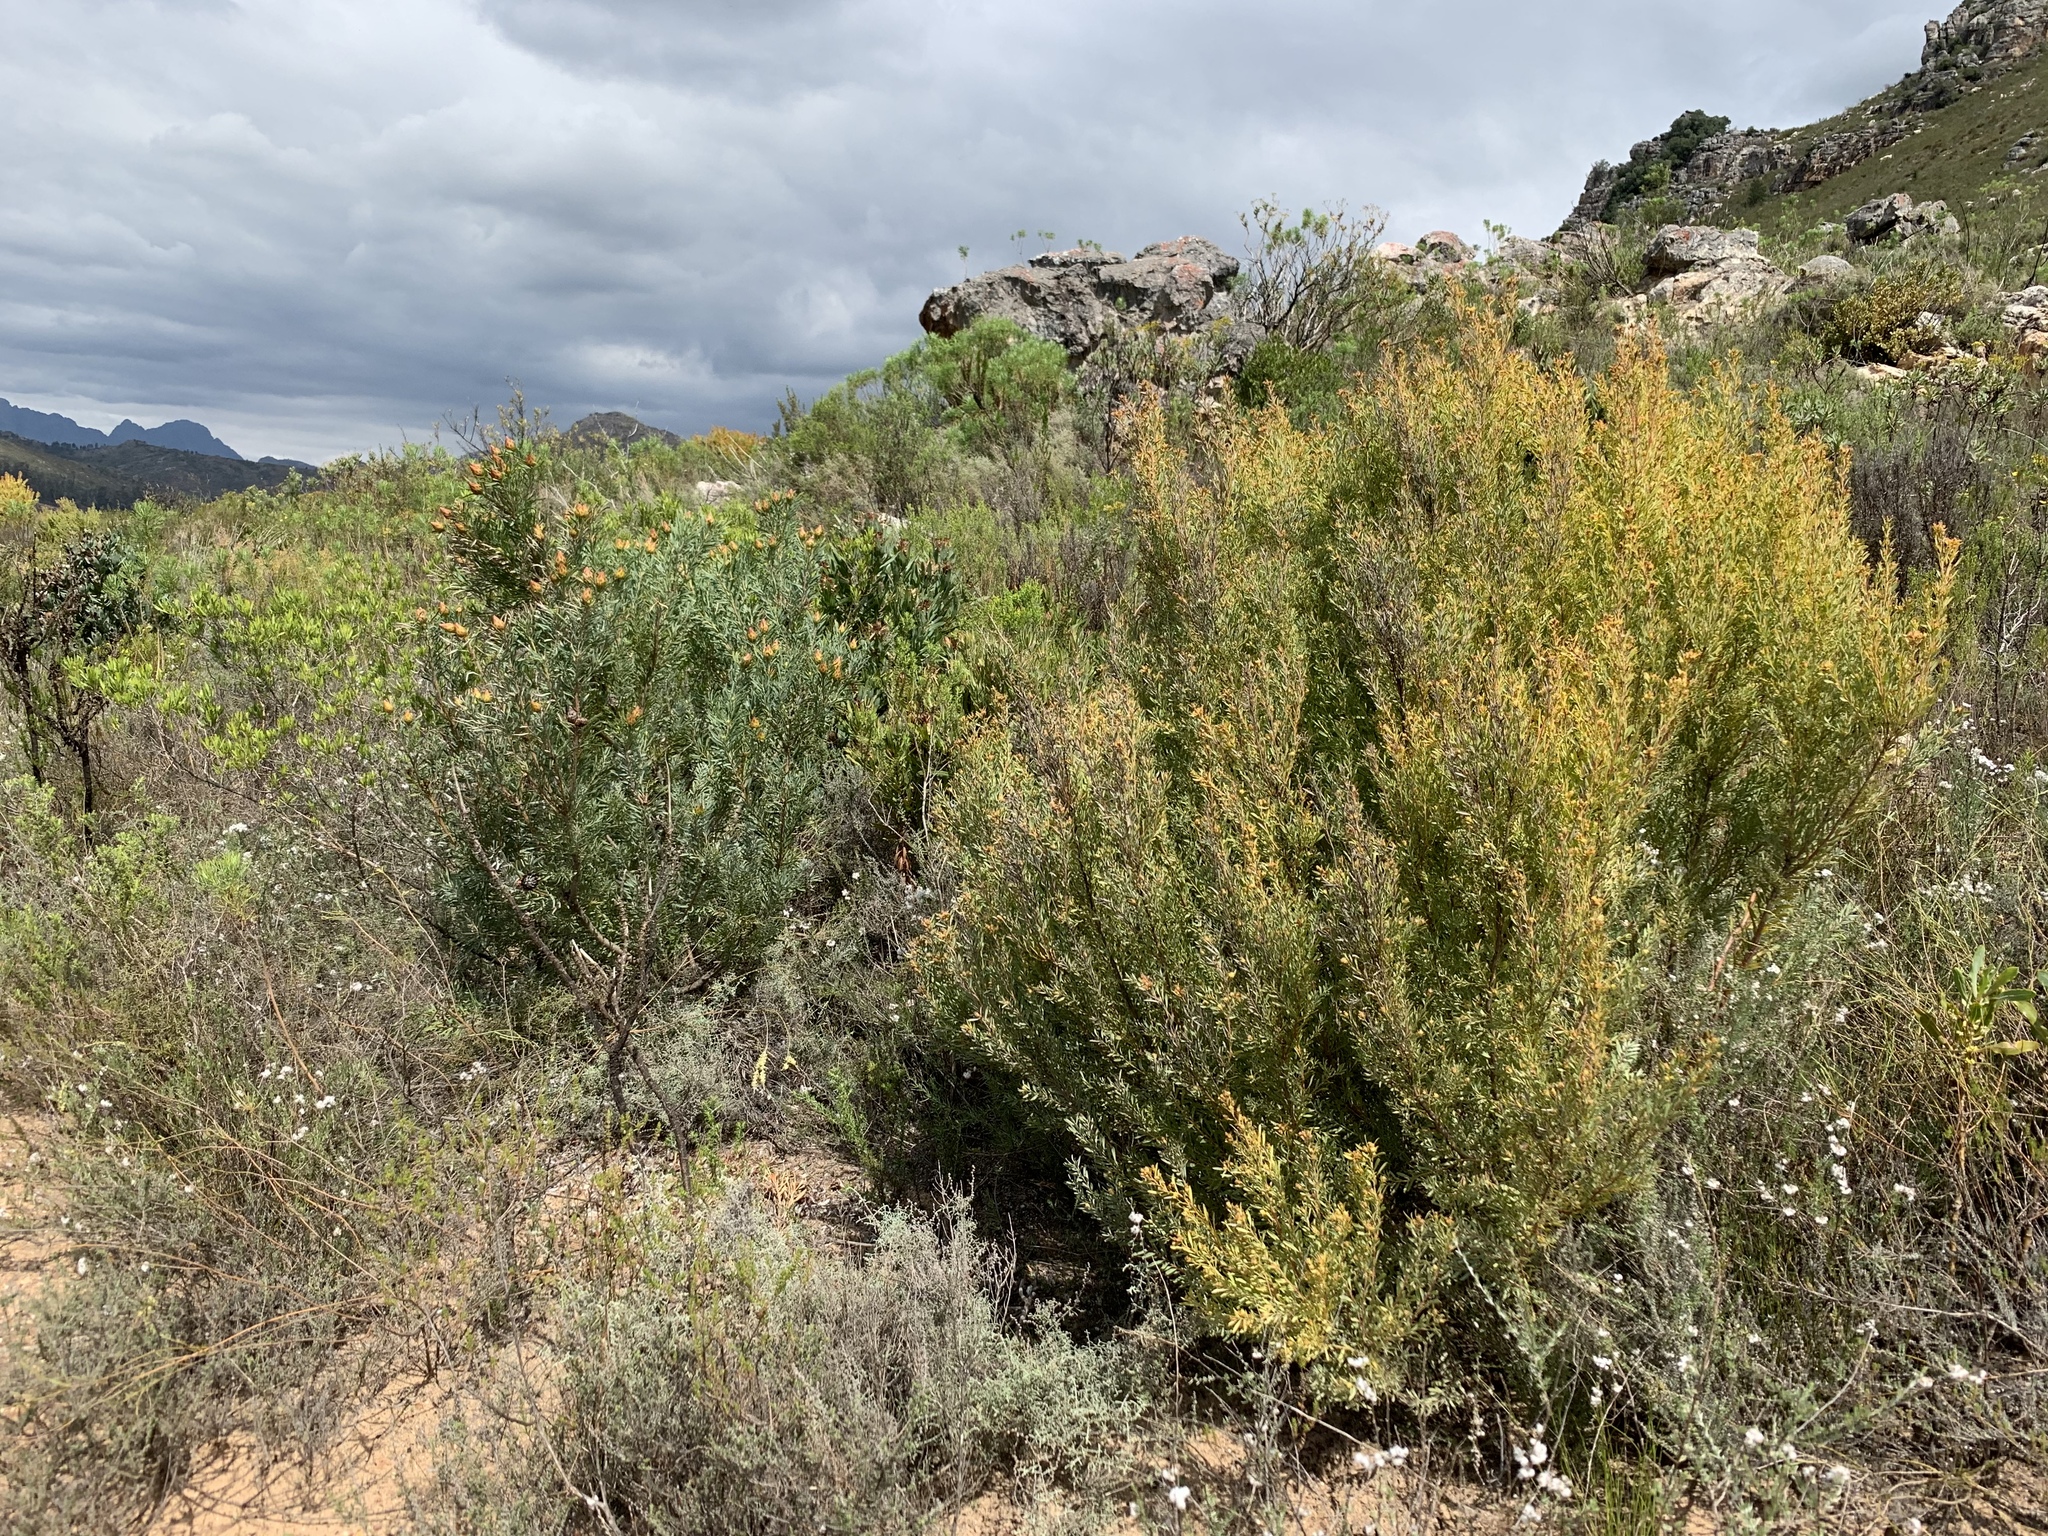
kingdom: Plantae
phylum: Tracheophyta
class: Magnoliopsida
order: Proteales
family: Proteaceae
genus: Leucadendron
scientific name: Leucadendron rubrum
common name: Spinning top
